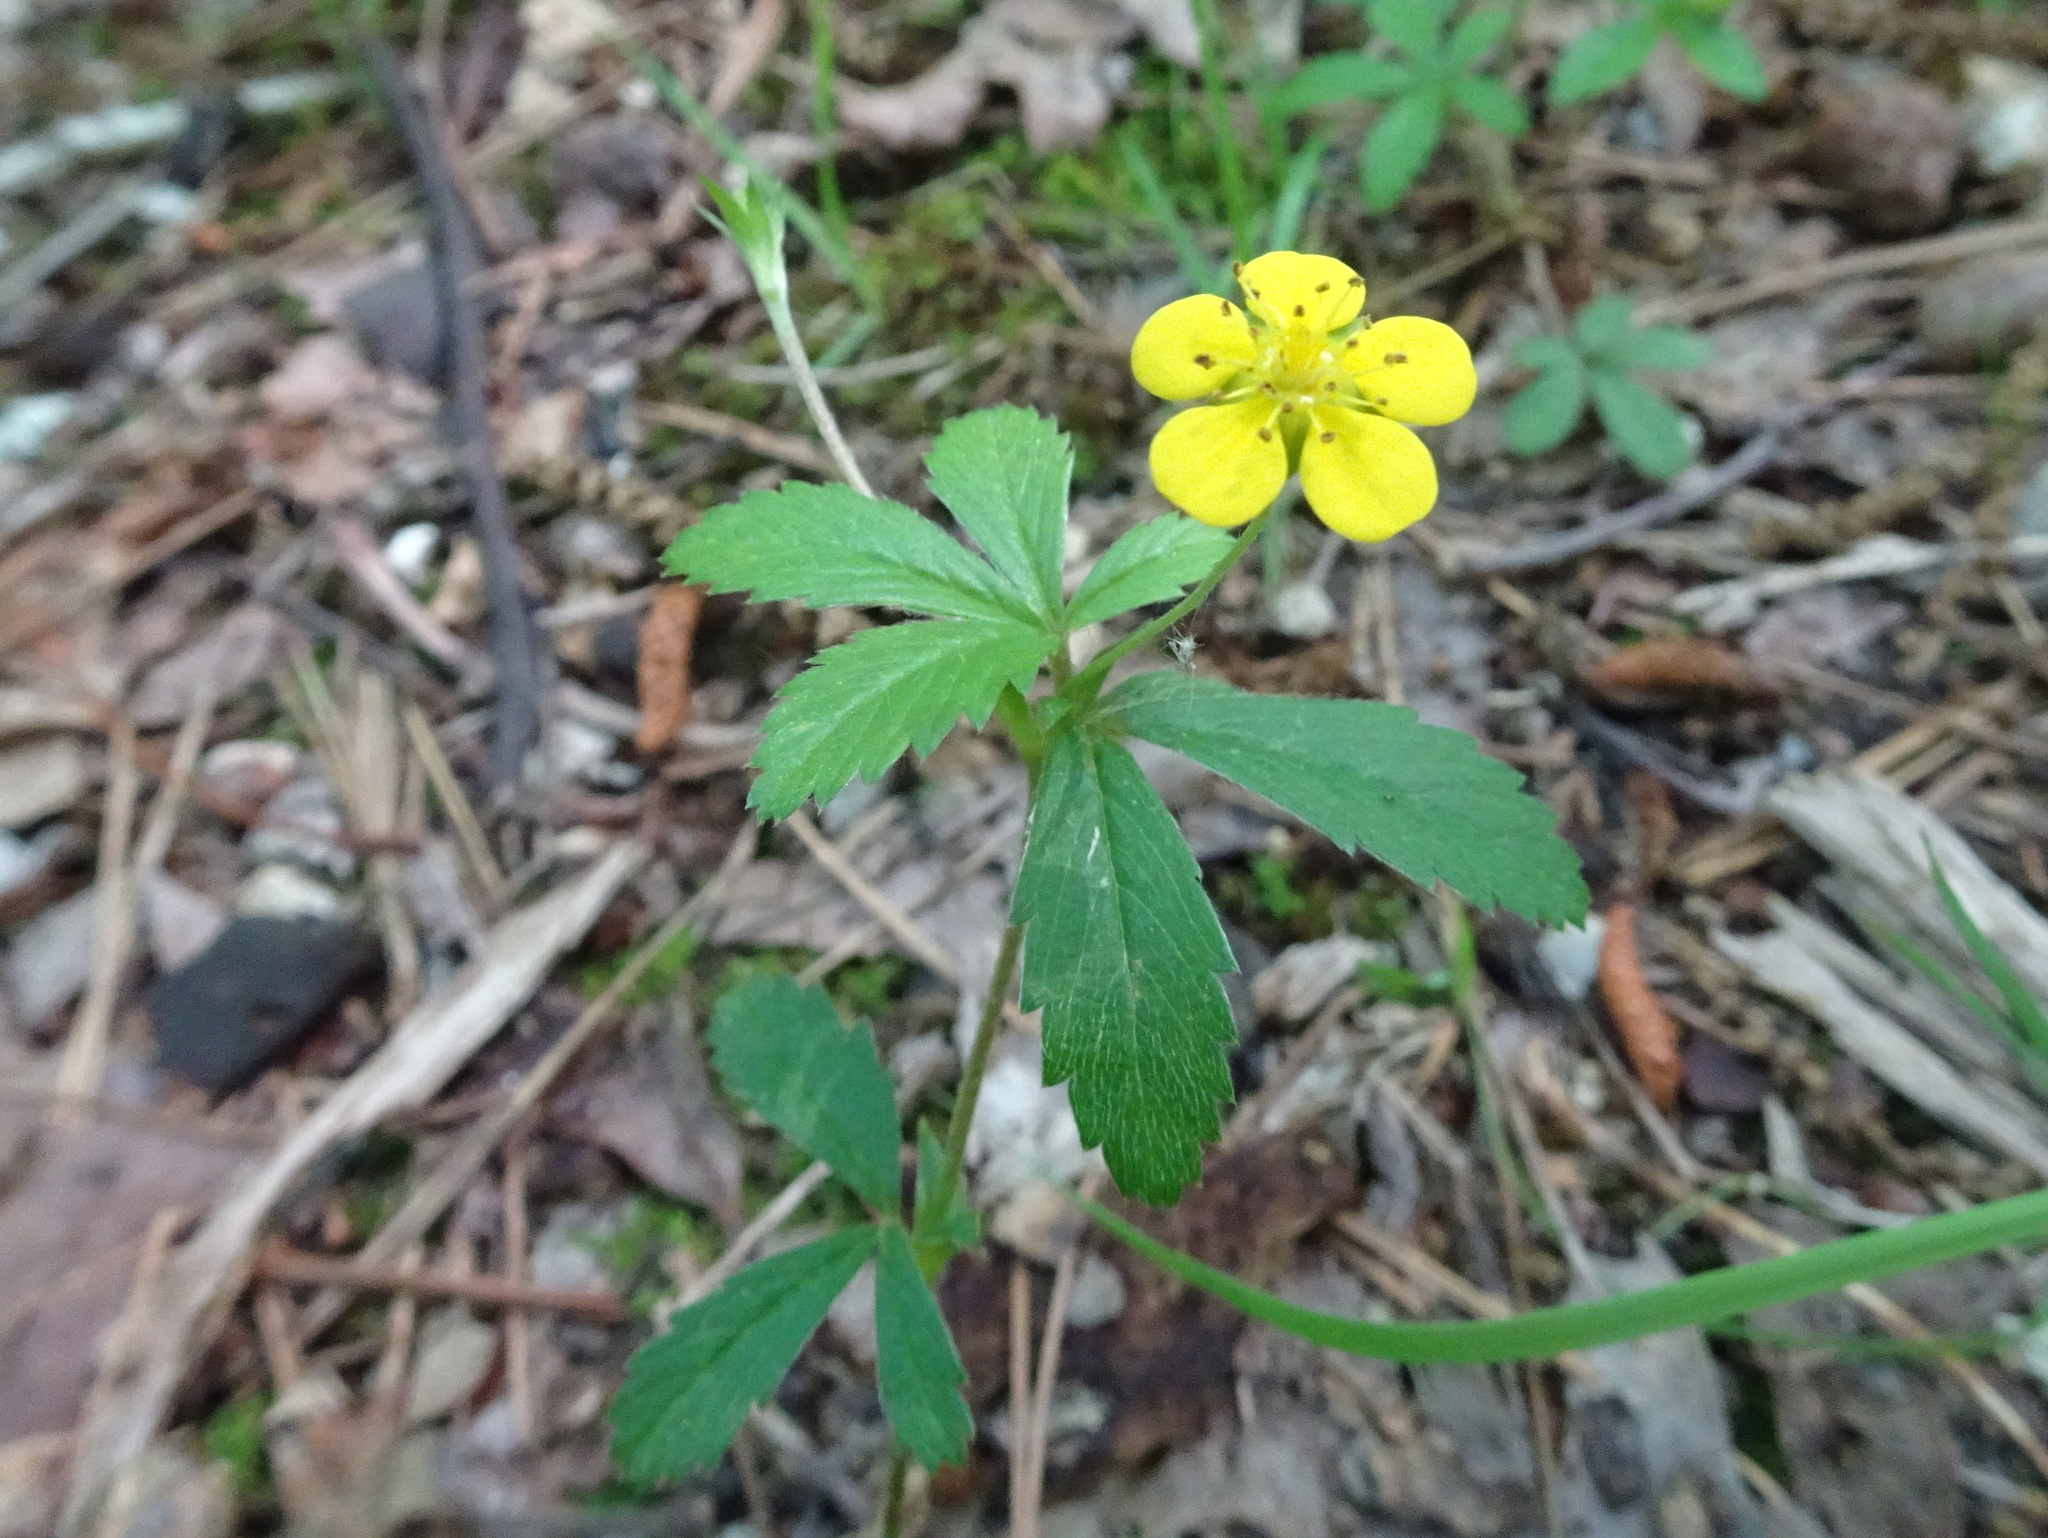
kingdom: Plantae
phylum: Tracheophyta
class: Magnoliopsida
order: Rosales
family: Rosaceae
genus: Potentilla
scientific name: Potentilla simplex
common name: Old field cinquefoil
